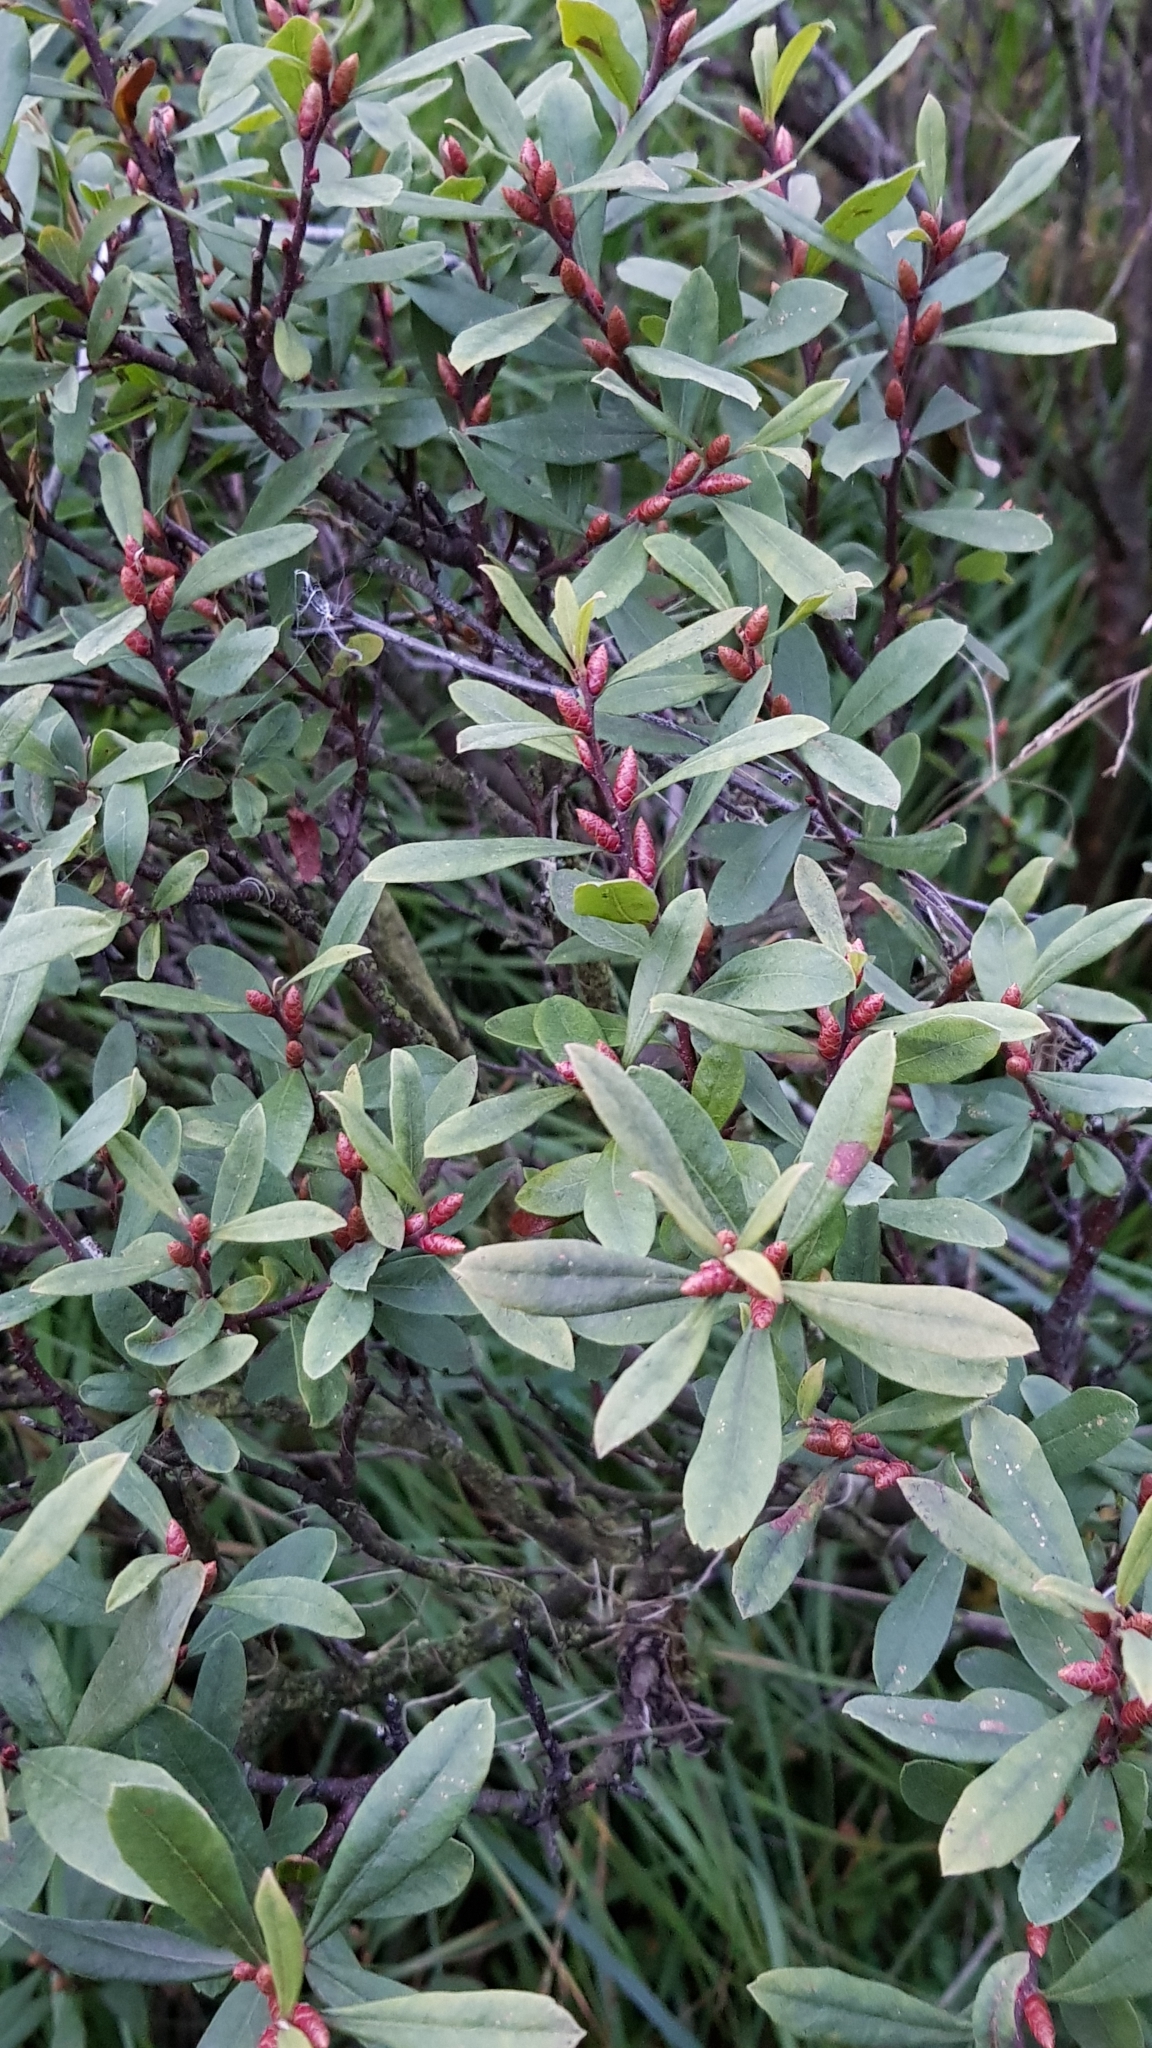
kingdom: Plantae
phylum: Tracheophyta
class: Magnoliopsida
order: Fagales
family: Myricaceae
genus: Myrica
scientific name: Myrica gale
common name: Sweet gale
